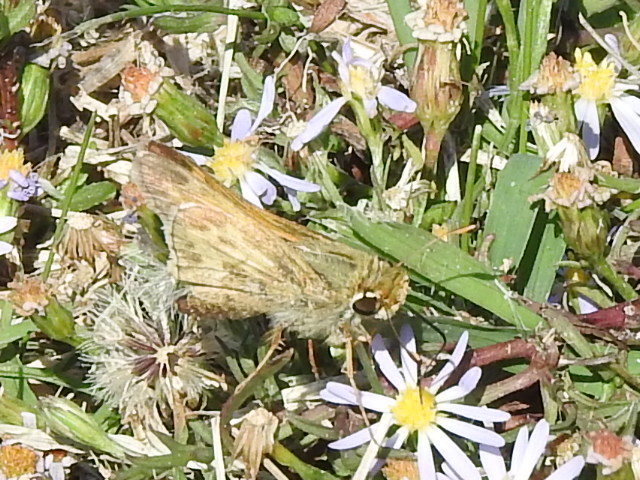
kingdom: Animalia
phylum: Arthropoda
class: Insecta
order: Lepidoptera
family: Hesperiidae
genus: Atalopedes
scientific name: Atalopedes
